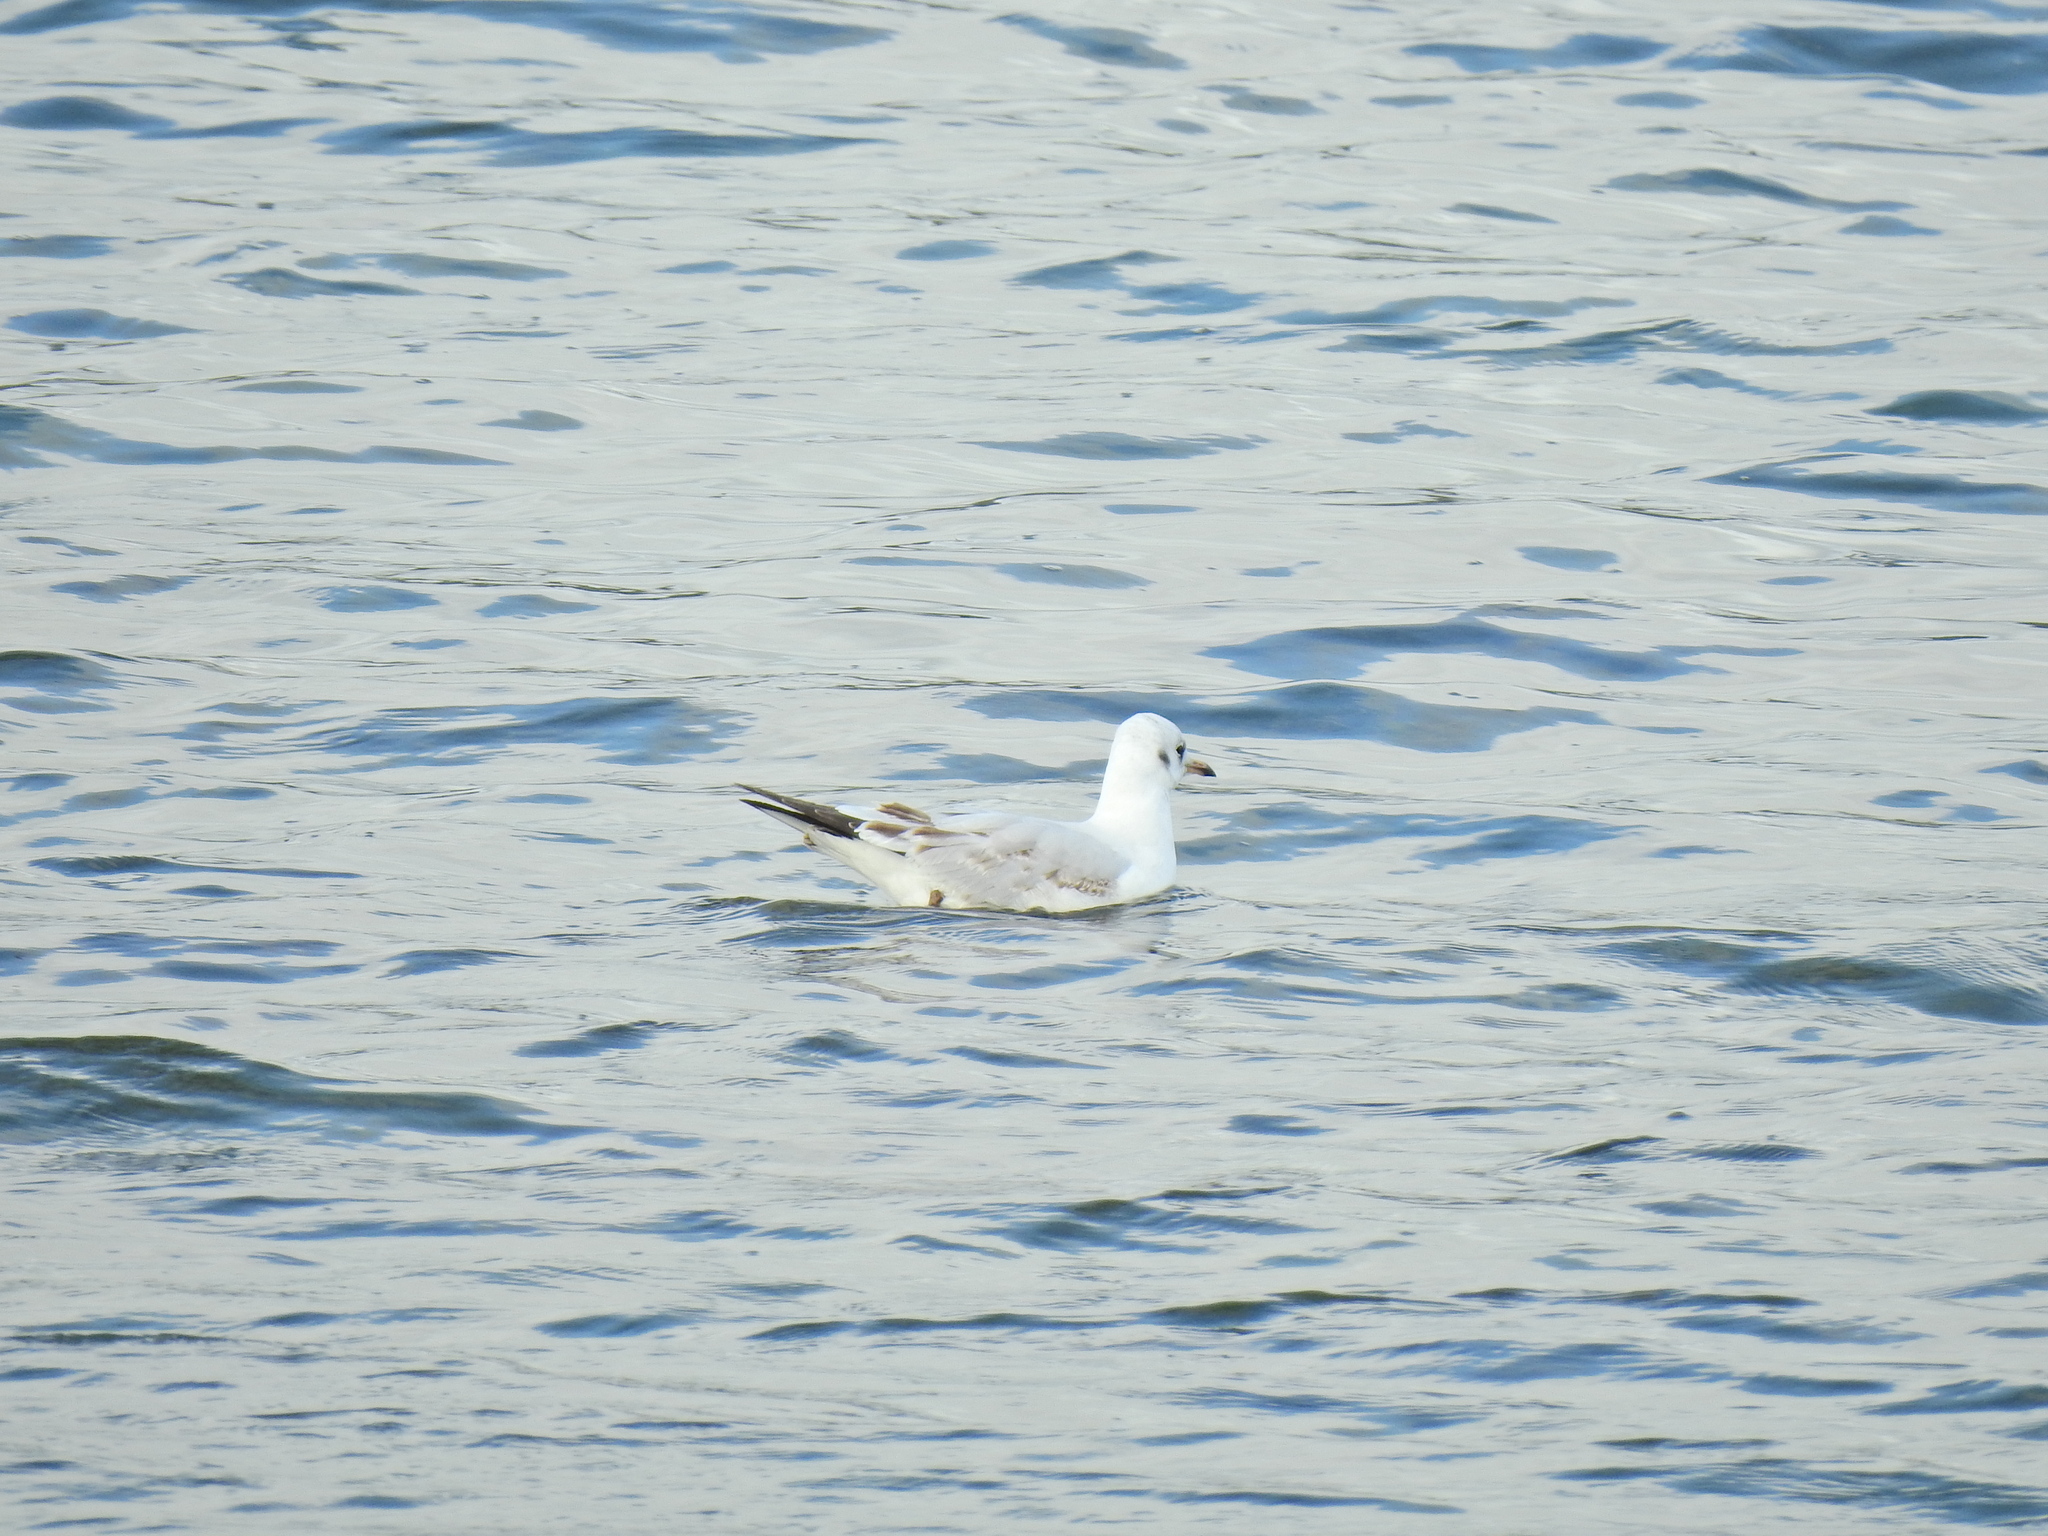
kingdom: Animalia
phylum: Chordata
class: Aves
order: Charadriiformes
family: Laridae
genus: Chroicocephalus
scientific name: Chroicocephalus ridibundus
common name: Black-headed gull
